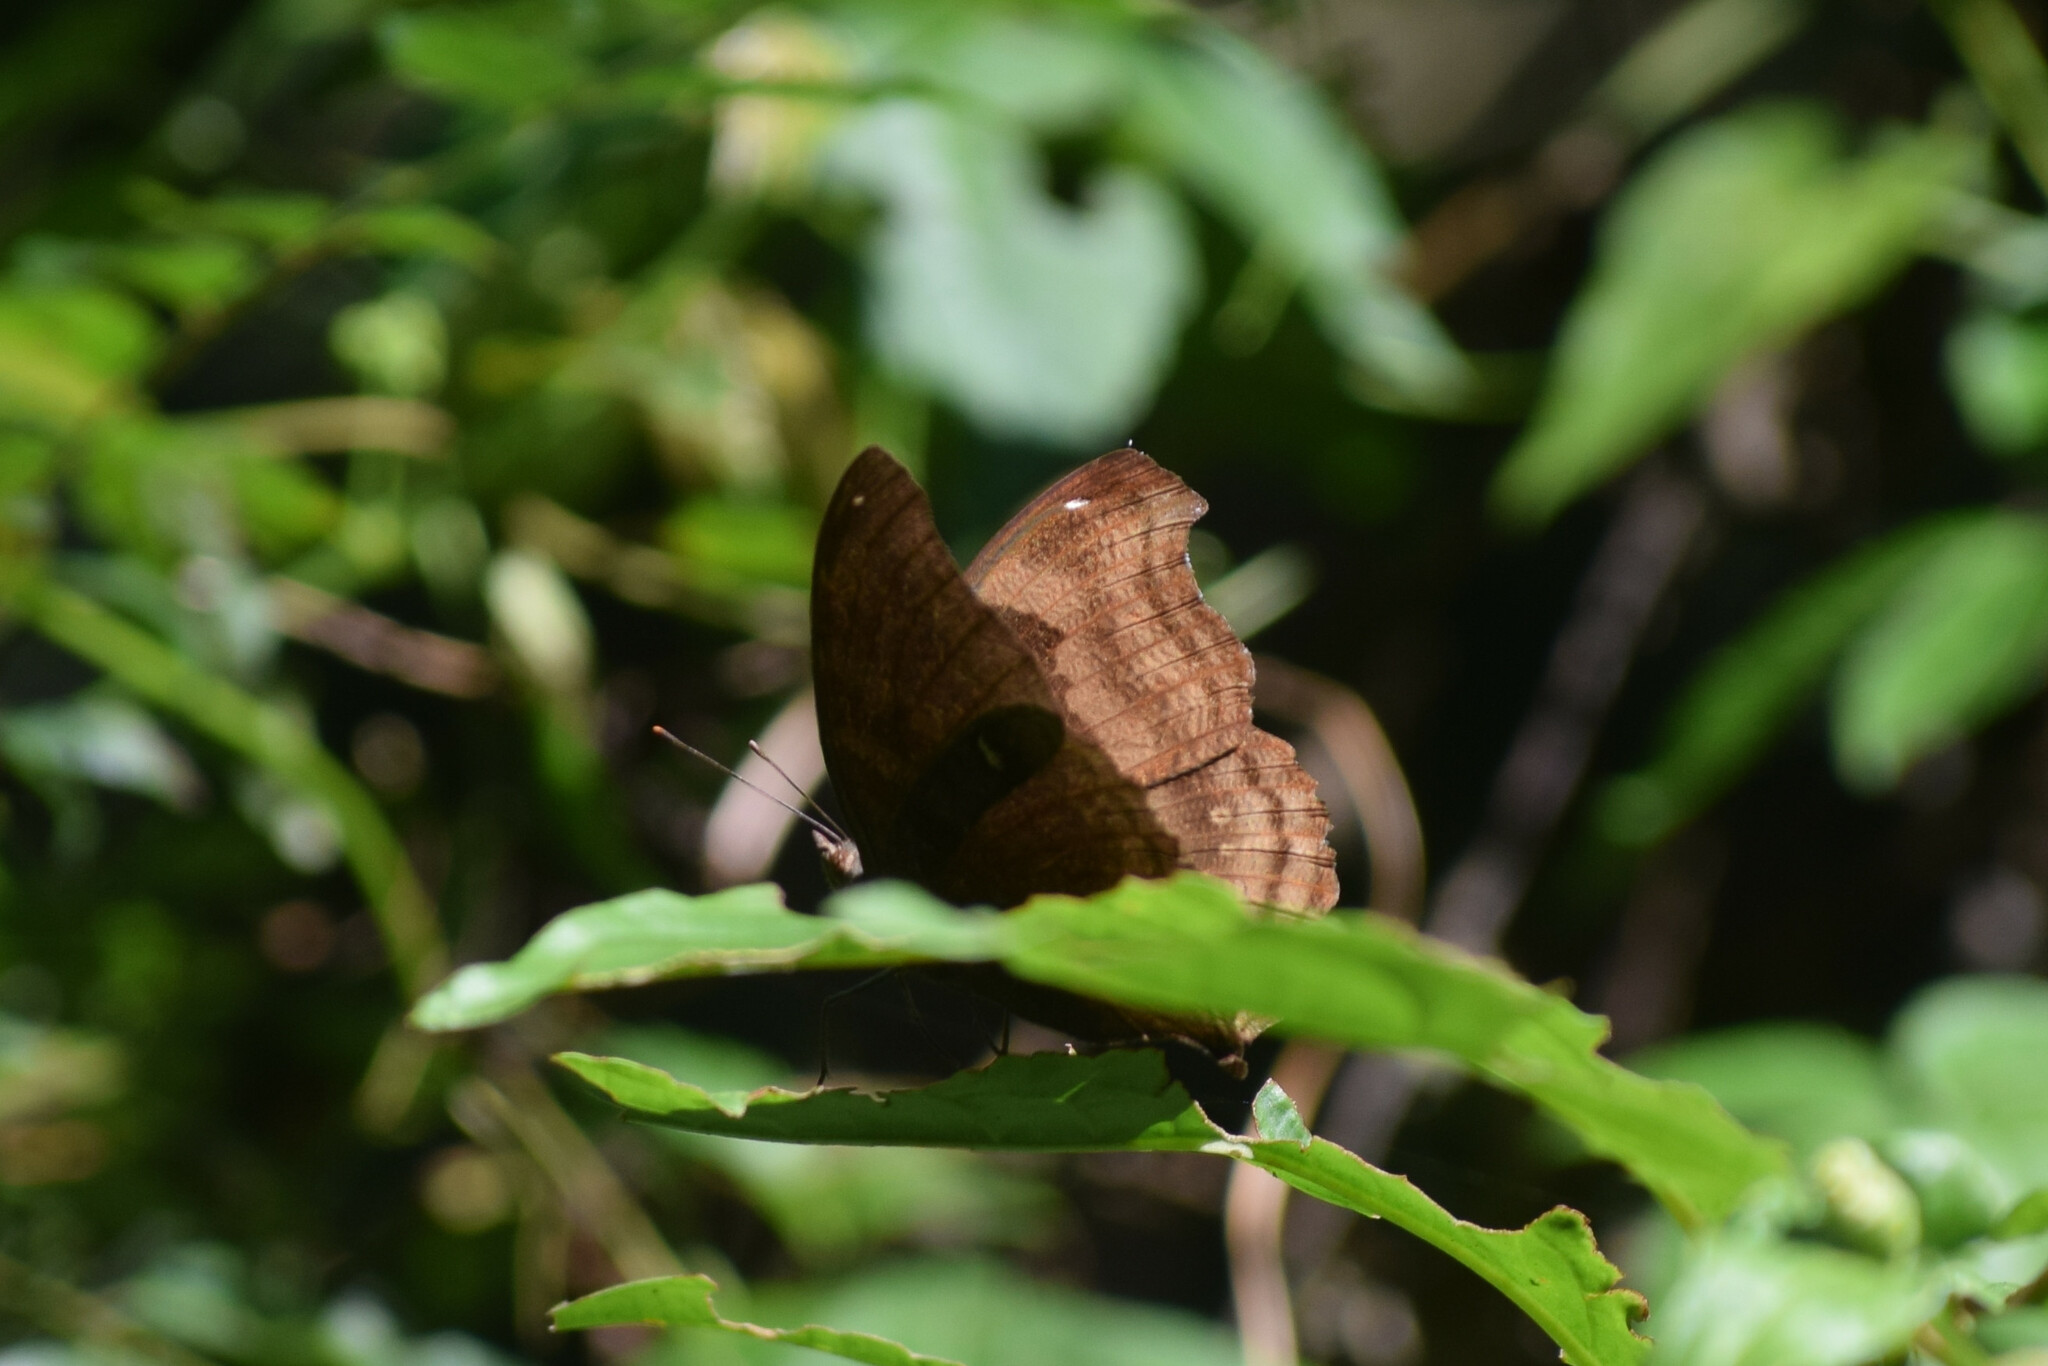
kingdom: Animalia
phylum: Arthropoda
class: Insecta
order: Lepidoptera
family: Nymphalidae
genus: Junonia
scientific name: Junonia iphita
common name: Chocolate pansy
